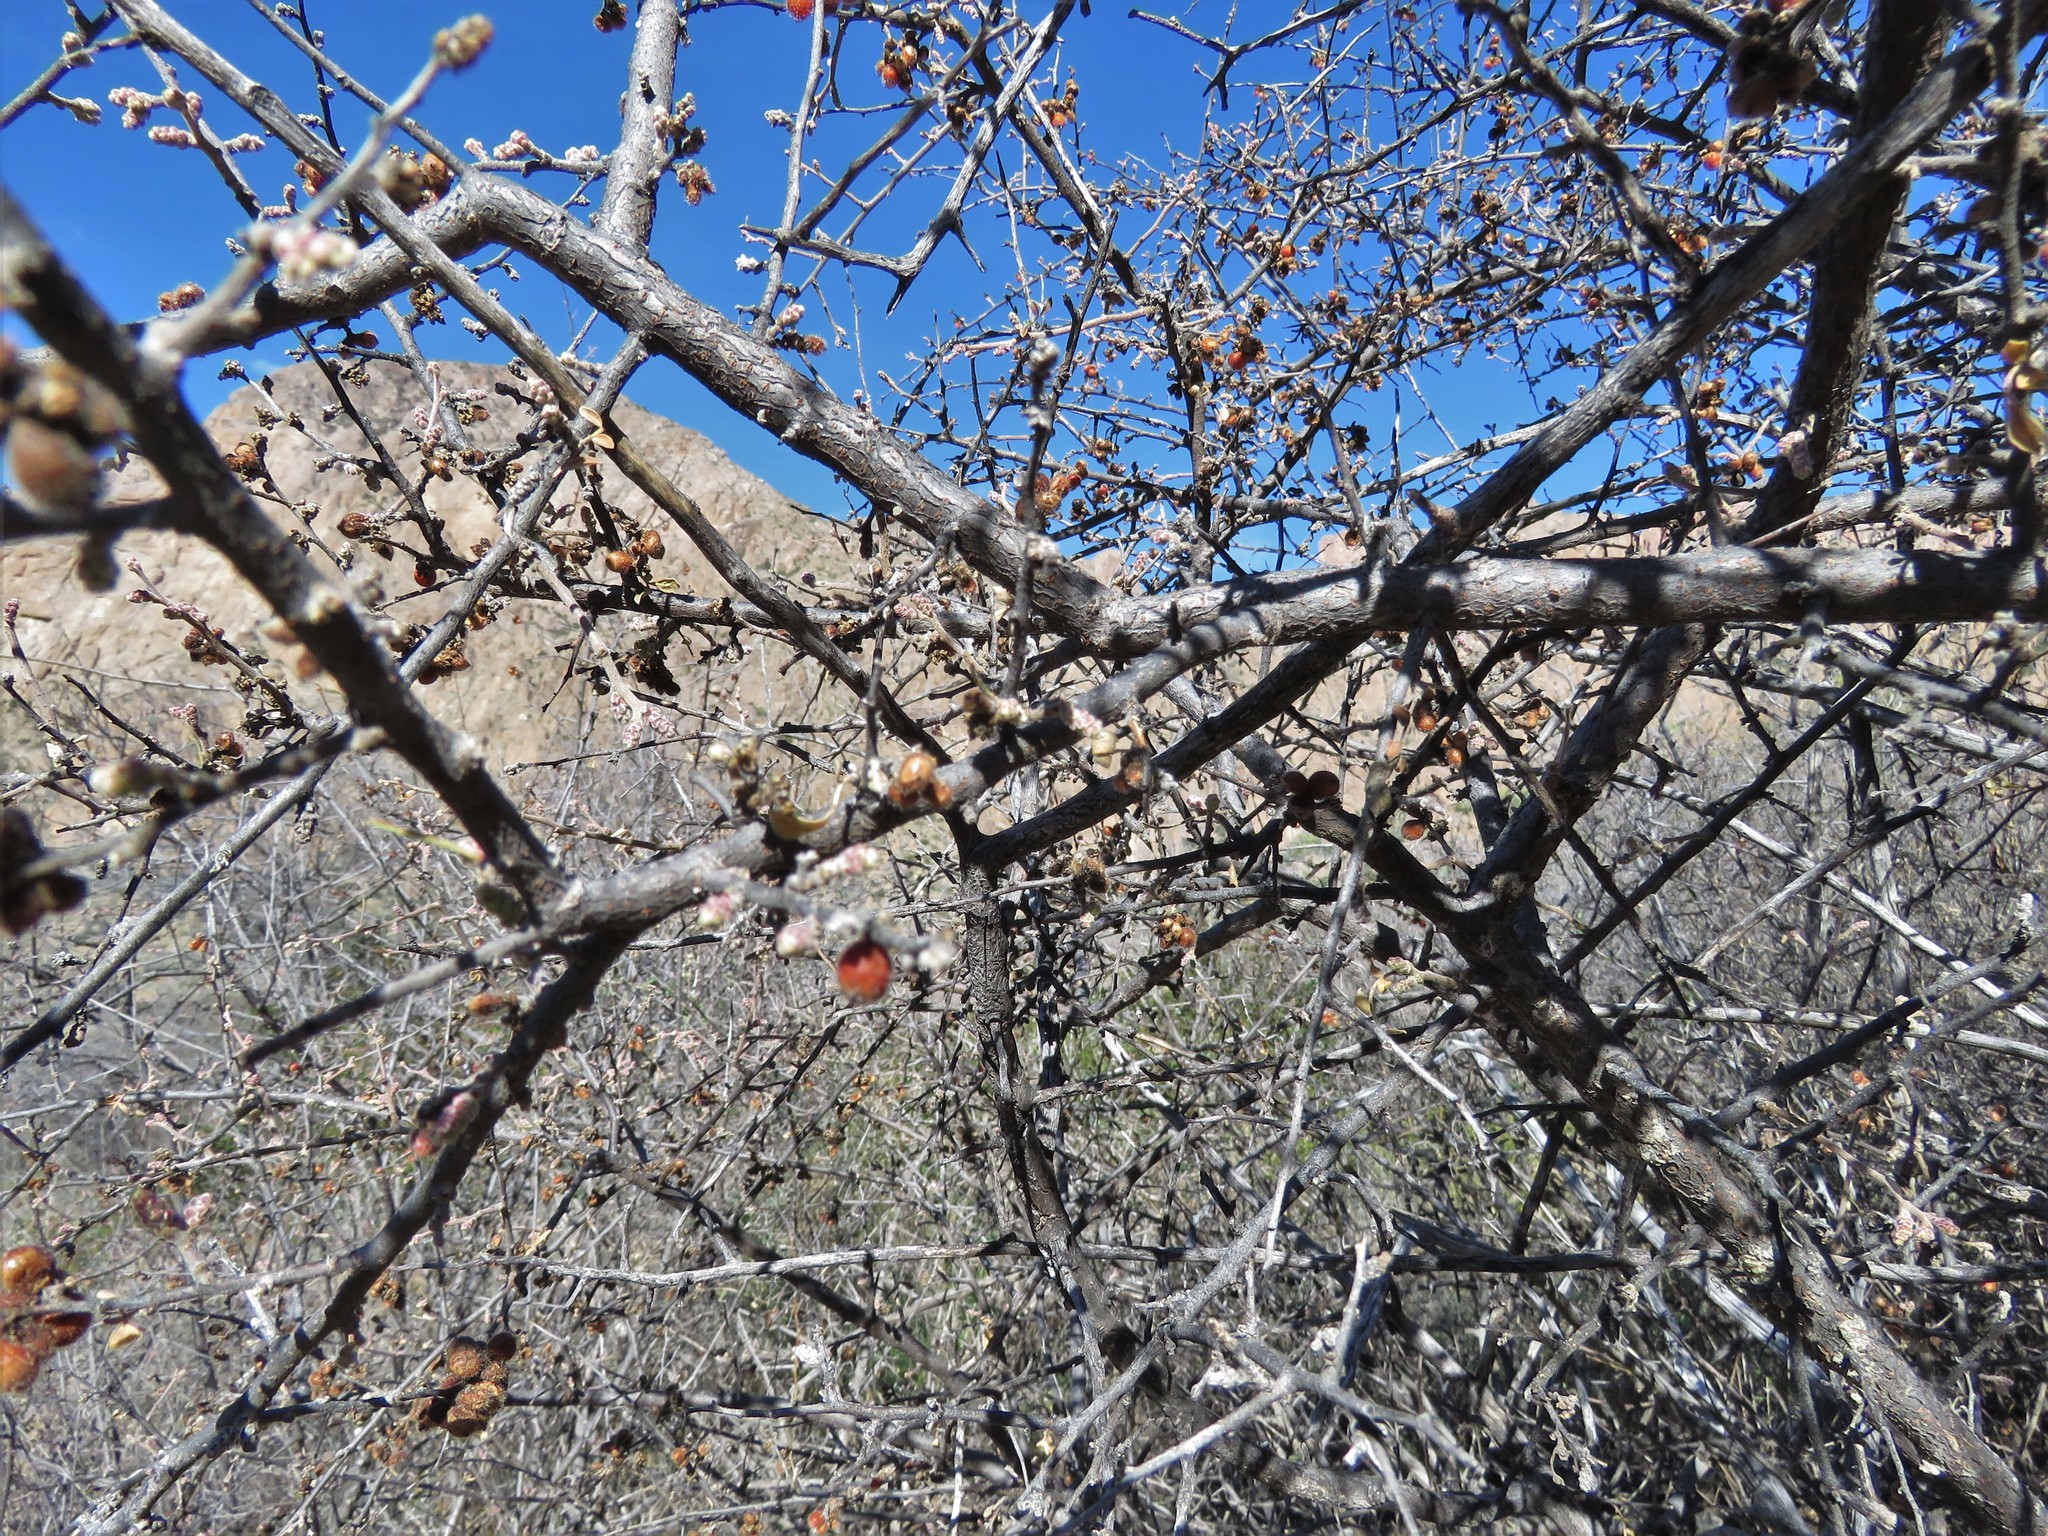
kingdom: Plantae
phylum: Tracheophyta
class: Magnoliopsida
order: Sapindales
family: Anacardiaceae
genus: Rhus
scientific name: Rhus microphylla
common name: Desert sumac
